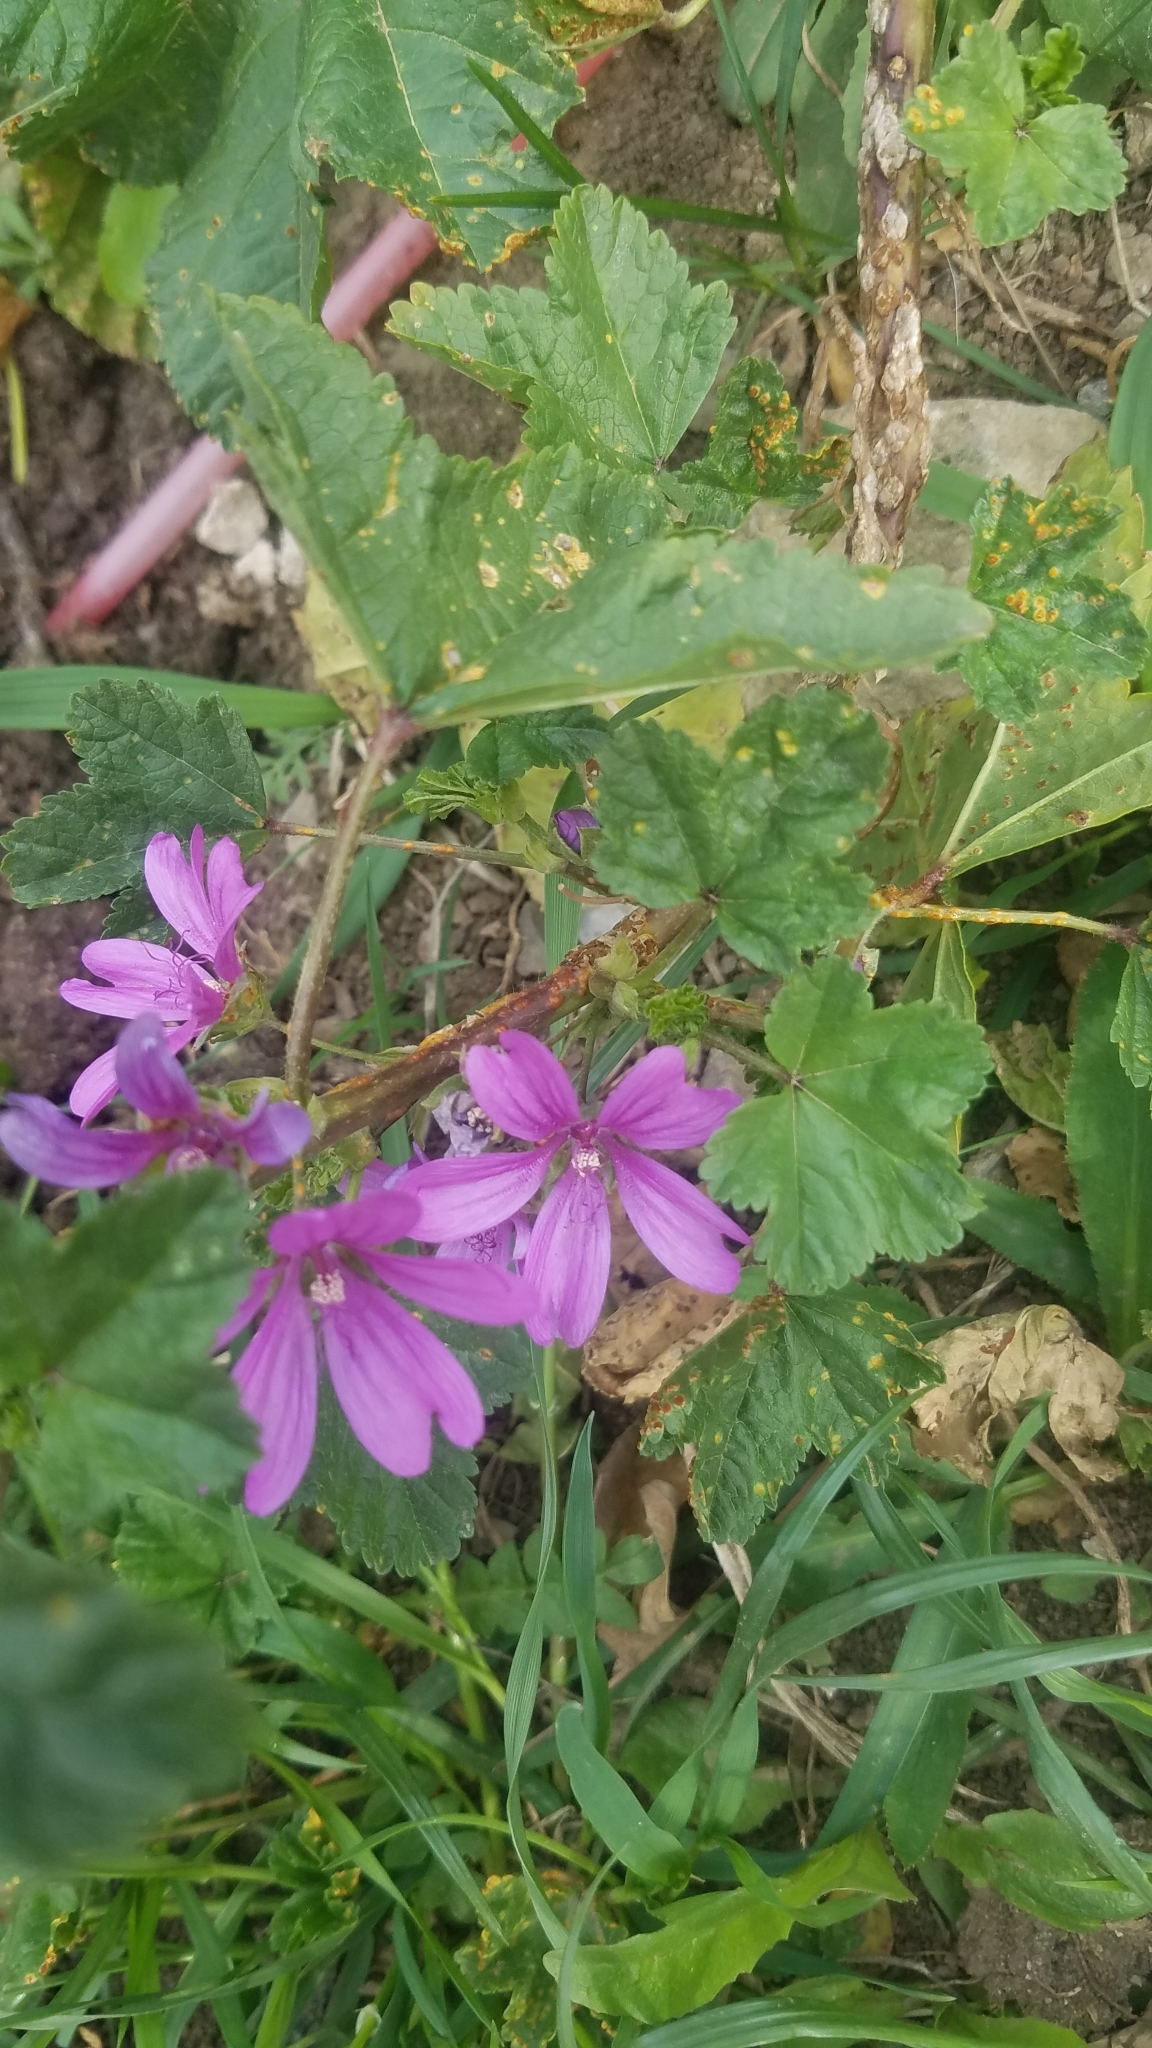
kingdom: Plantae
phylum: Tracheophyta
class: Magnoliopsida
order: Malvales
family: Malvaceae
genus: Malva
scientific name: Malva sylvestris
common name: Common mallow
